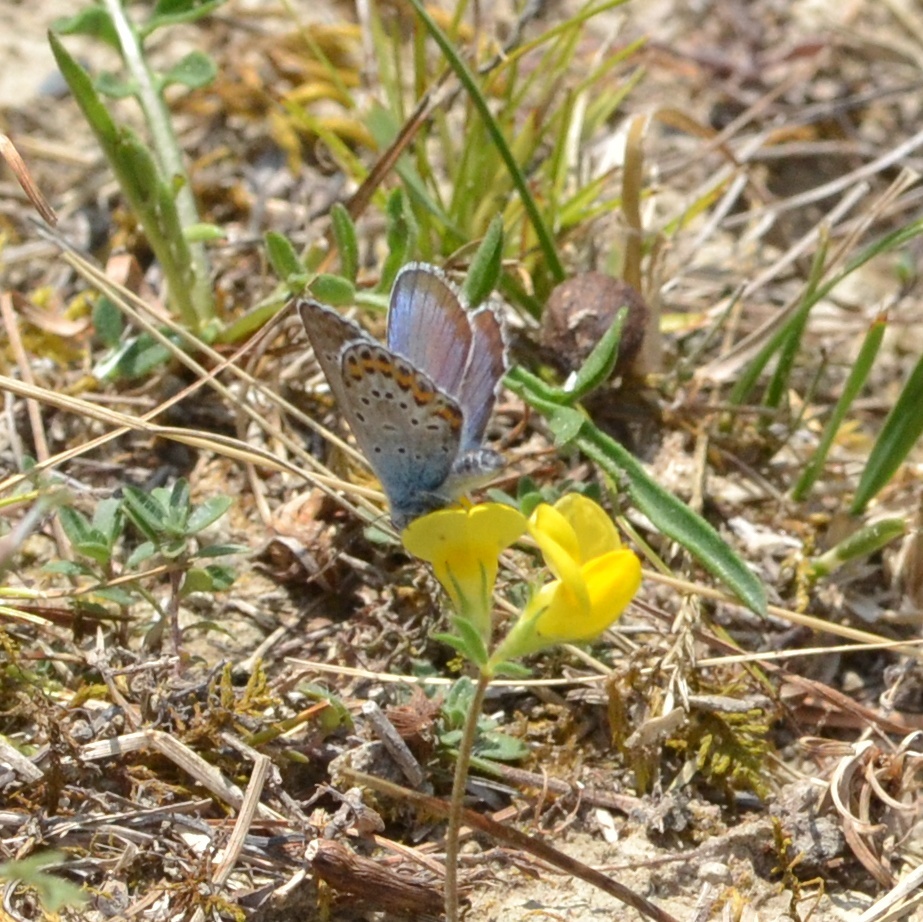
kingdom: Animalia
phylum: Arthropoda
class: Insecta
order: Lepidoptera
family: Lycaenidae
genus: Plebejus
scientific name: Plebejus argus
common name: Silver-studded blue
